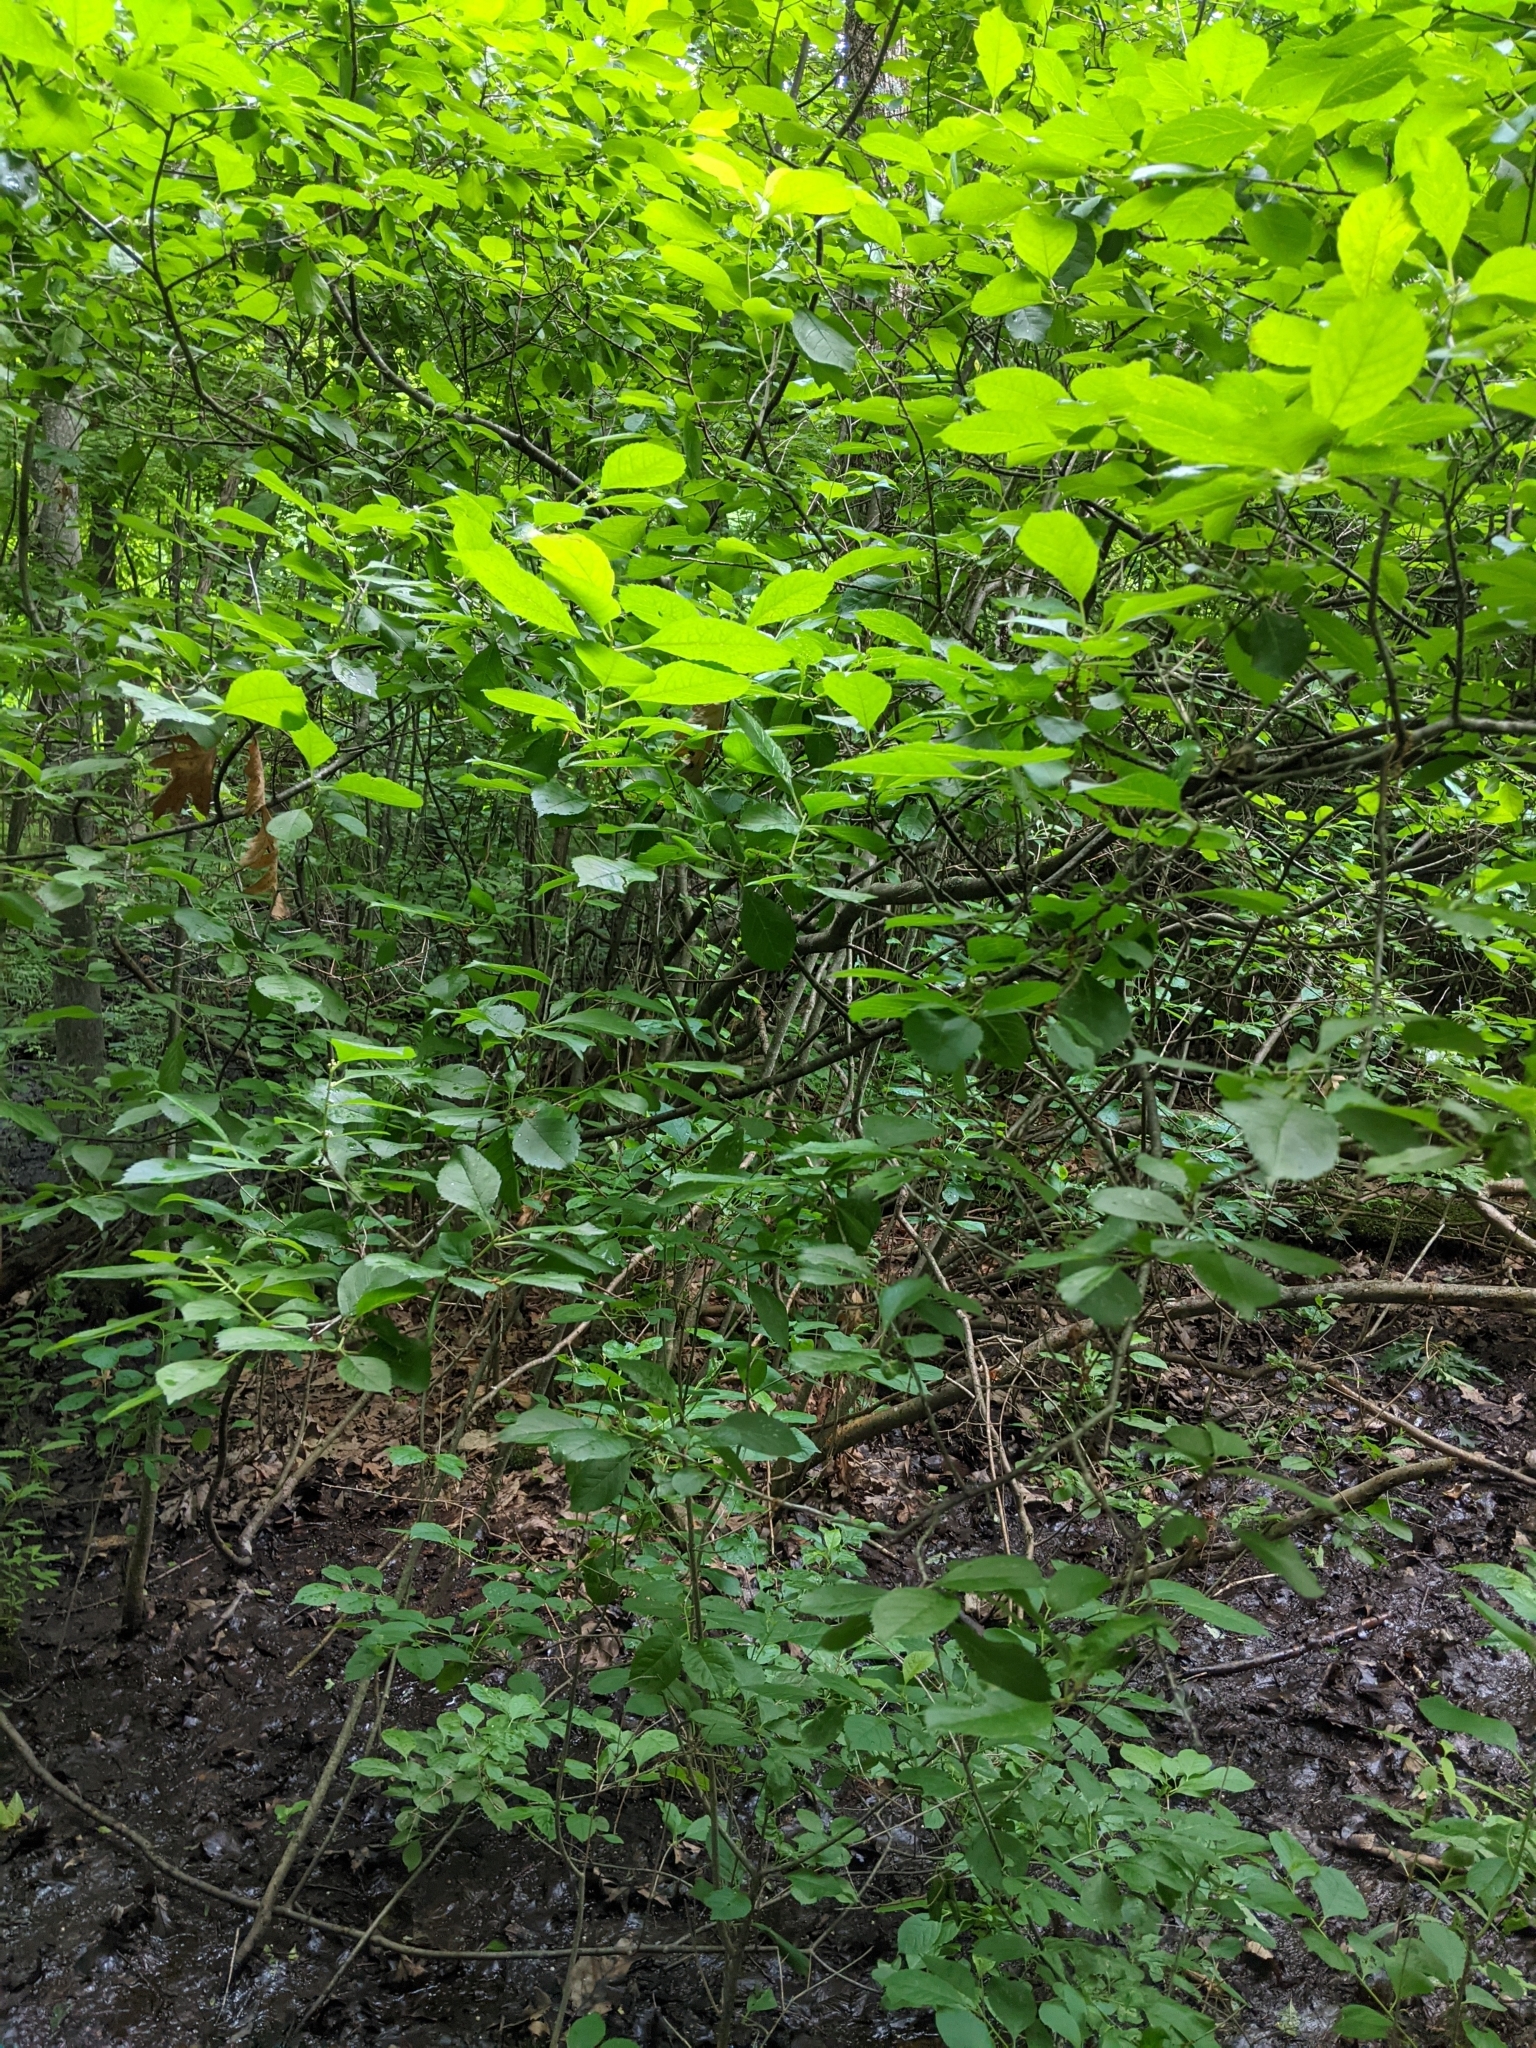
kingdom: Plantae
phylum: Tracheophyta
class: Magnoliopsida
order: Aquifoliales
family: Aquifoliaceae
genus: Ilex
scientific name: Ilex verticillata
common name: Virginia winterberry
